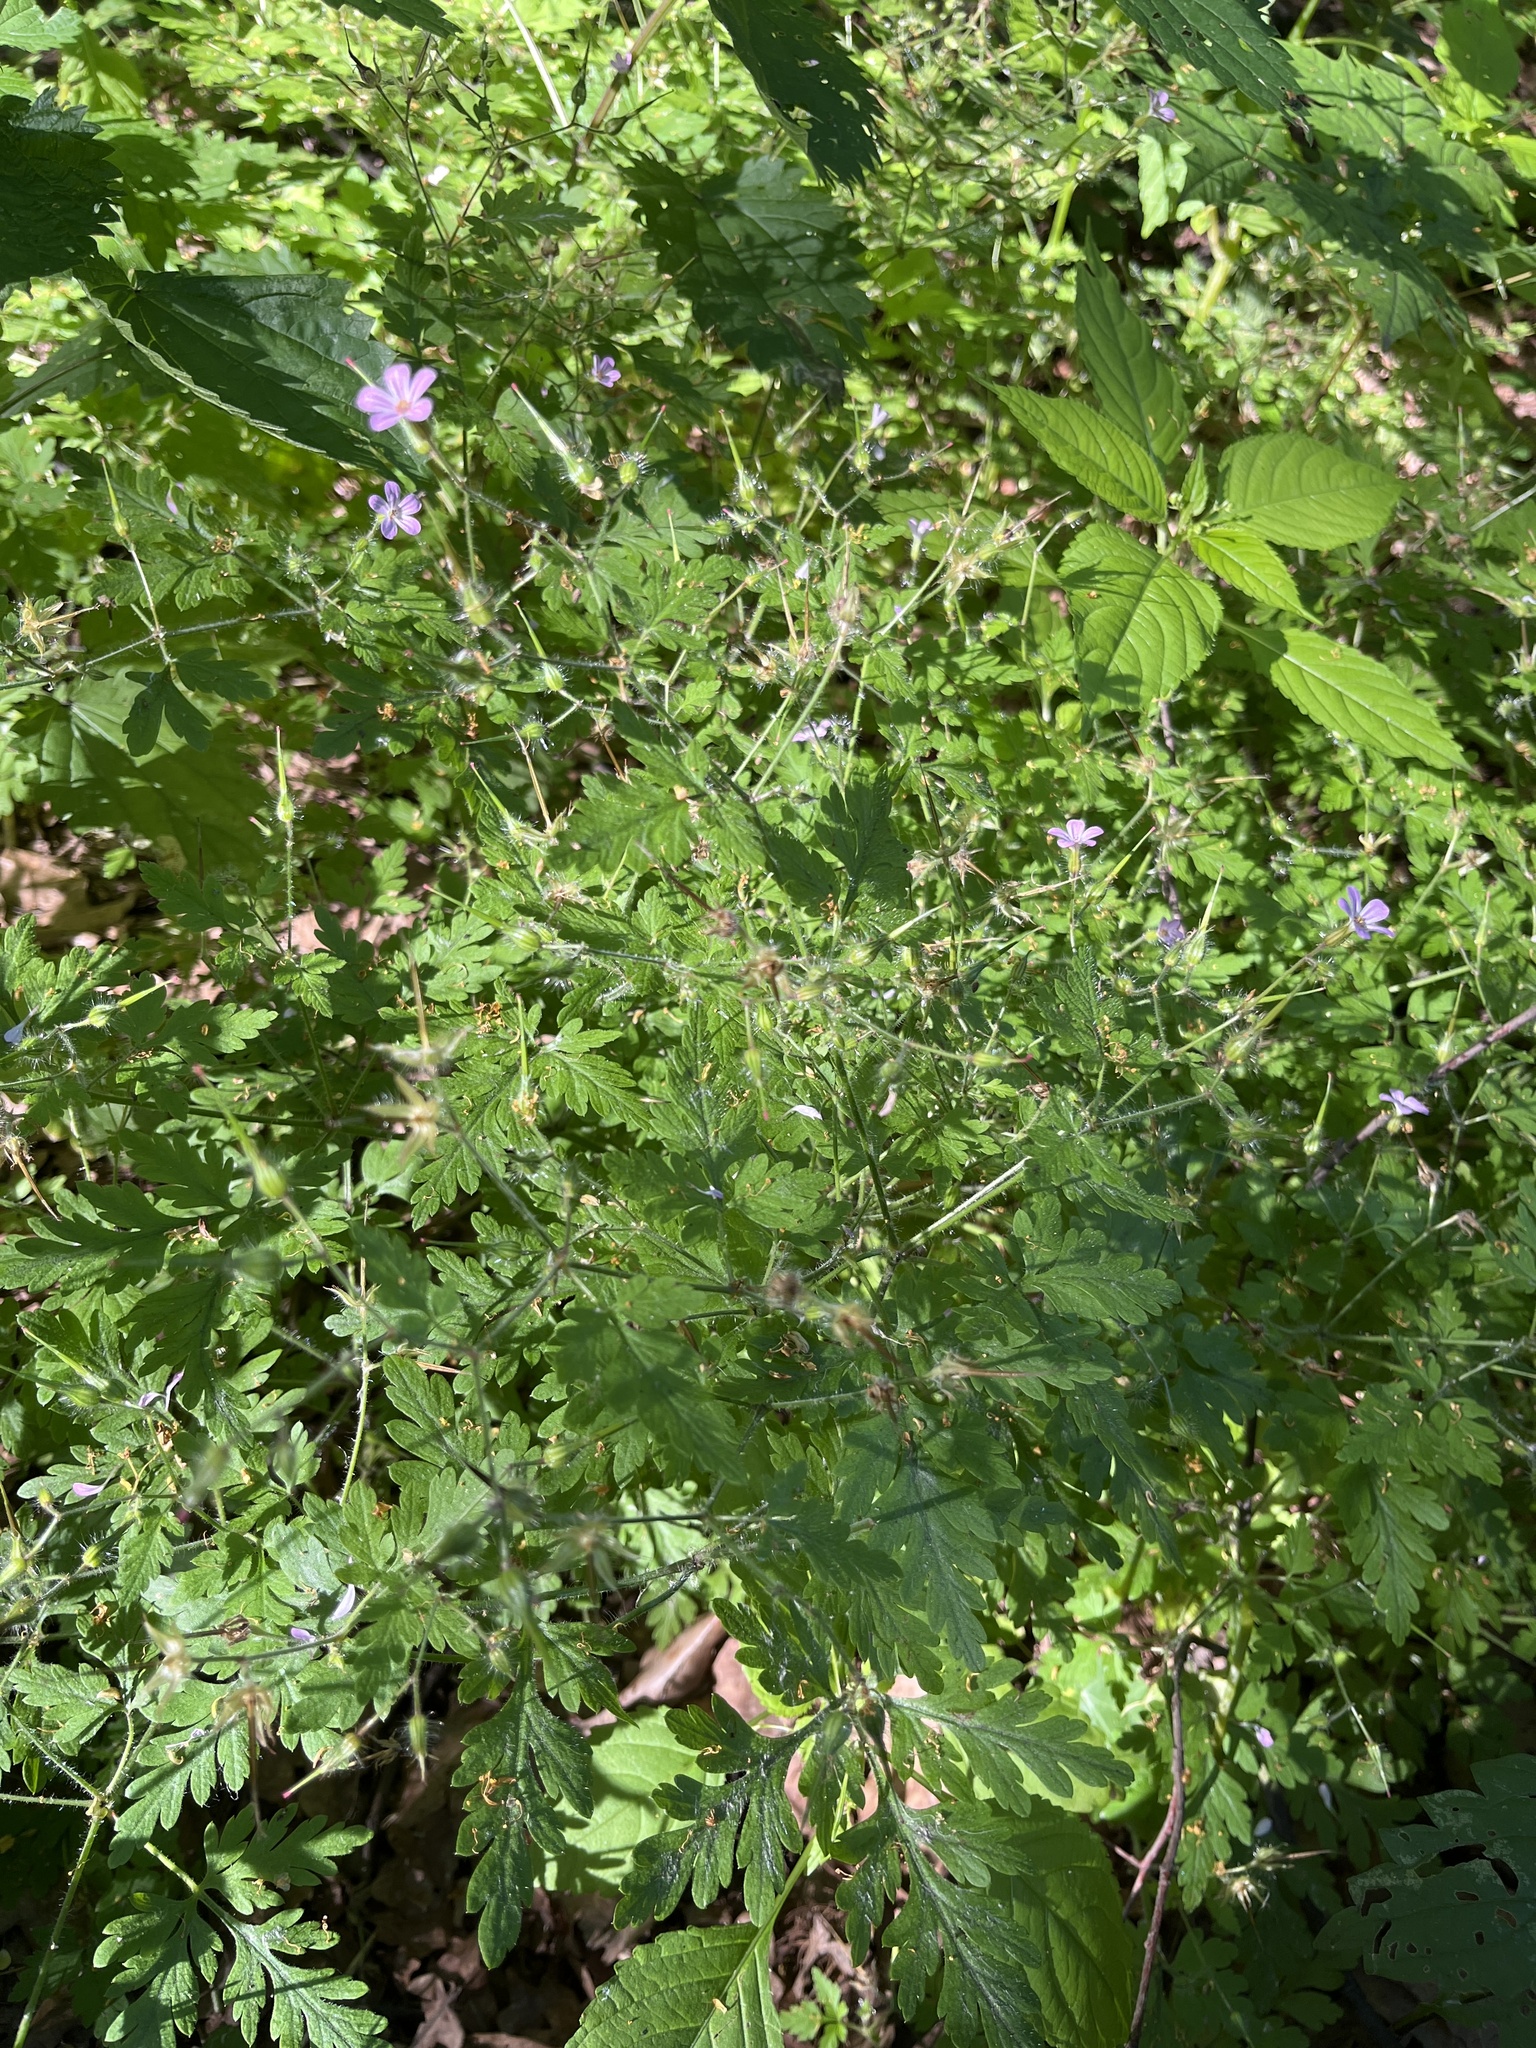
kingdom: Plantae
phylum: Tracheophyta
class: Magnoliopsida
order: Geraniales
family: Geraniaceae
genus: Geranium
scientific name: Geranium robertianum
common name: Herb-robert
